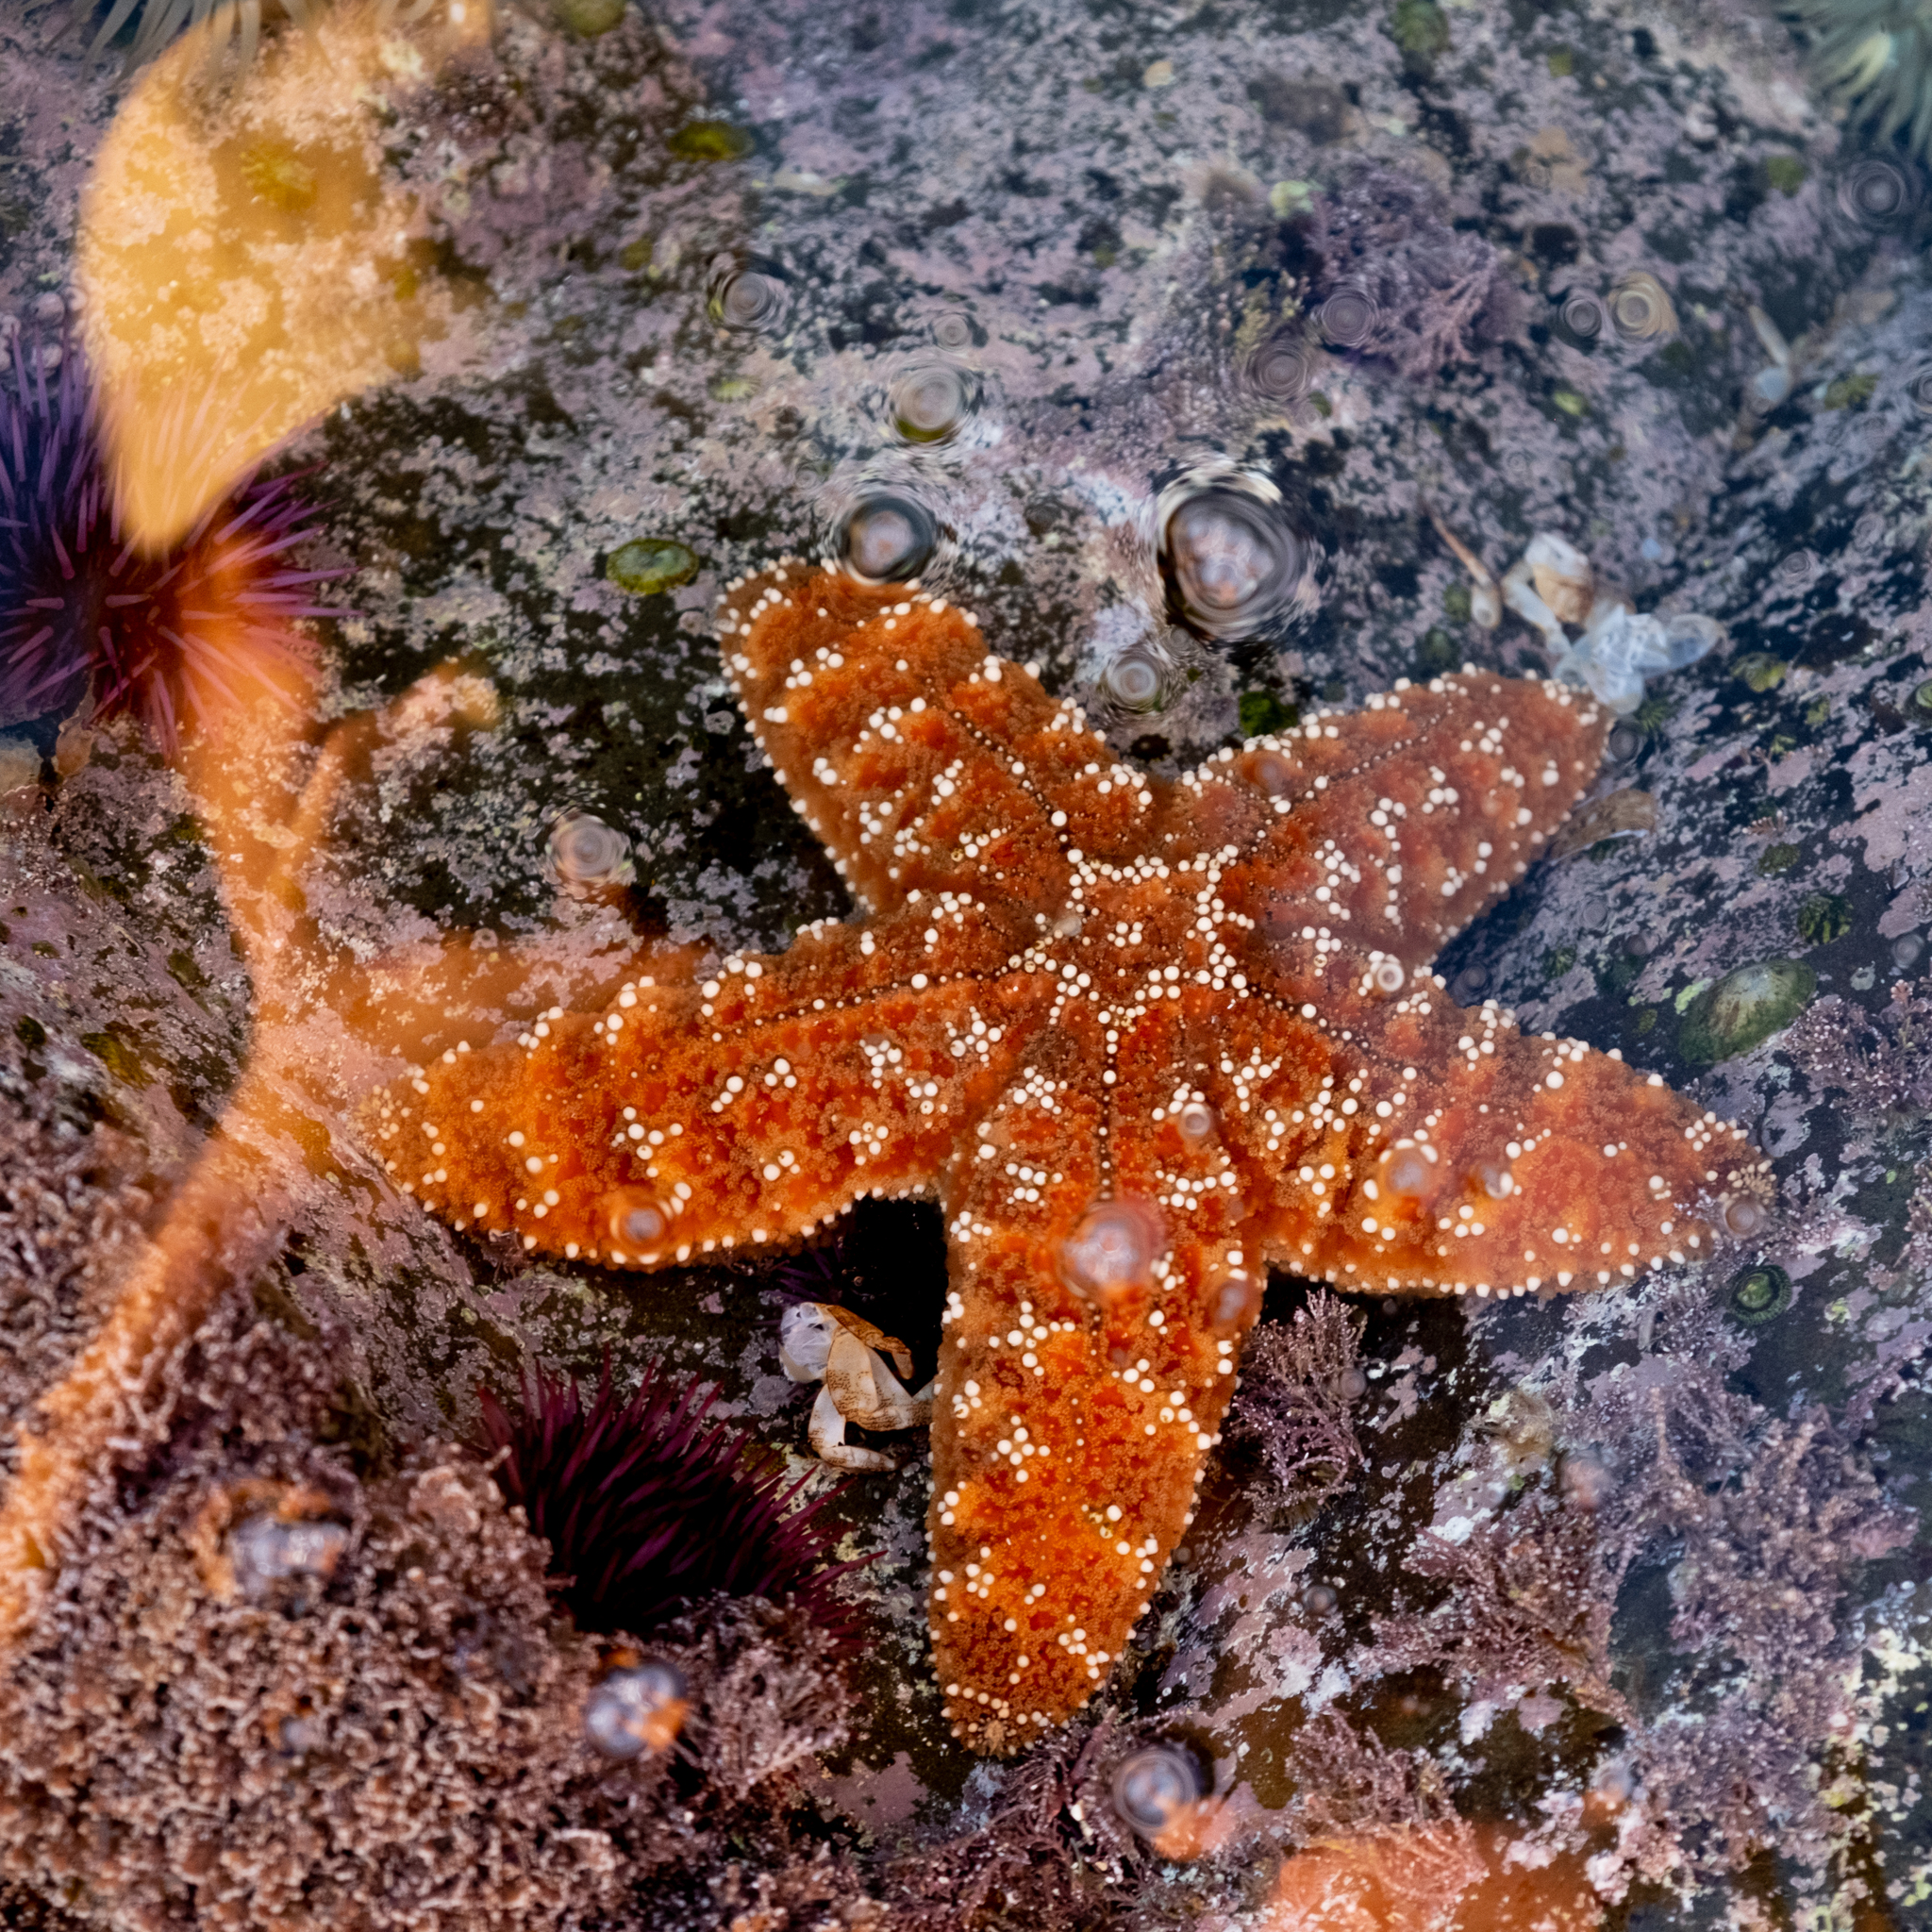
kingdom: Animalia
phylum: Echinodermata
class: Asteroidea
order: Forcipulatida
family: Asteriidae
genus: Pisaster
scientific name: Pisaster ochraceus
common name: Ochre stars
